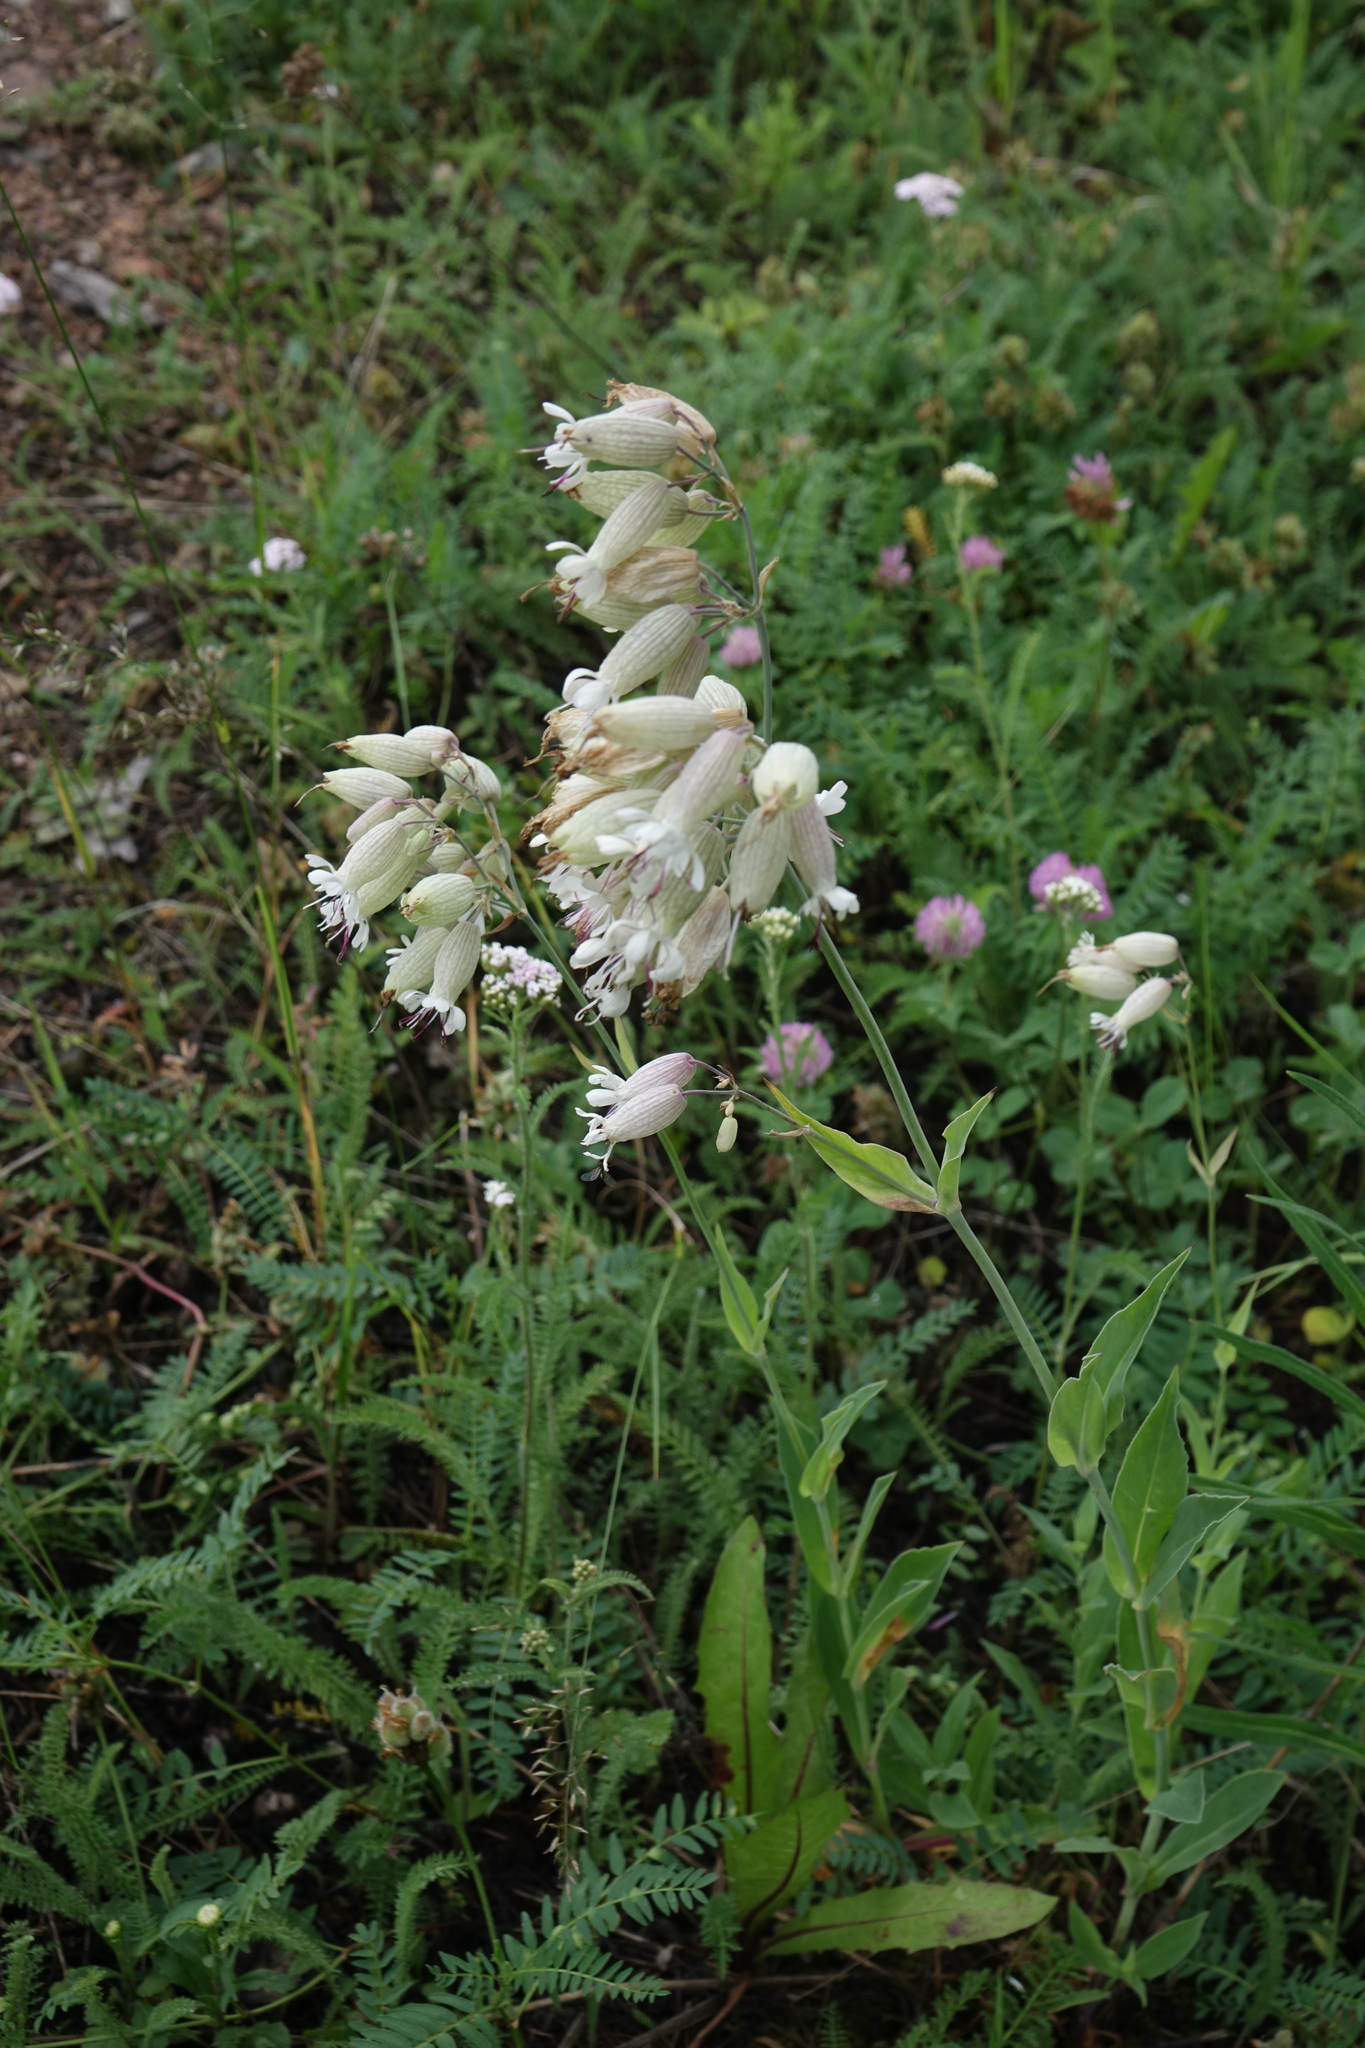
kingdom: Plantae
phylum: Tracheophyta
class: Magnoliopsida
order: Caryophyllales
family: Caryophyllaceae
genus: Silene
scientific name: Silene vulgaris
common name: Bladder campion
